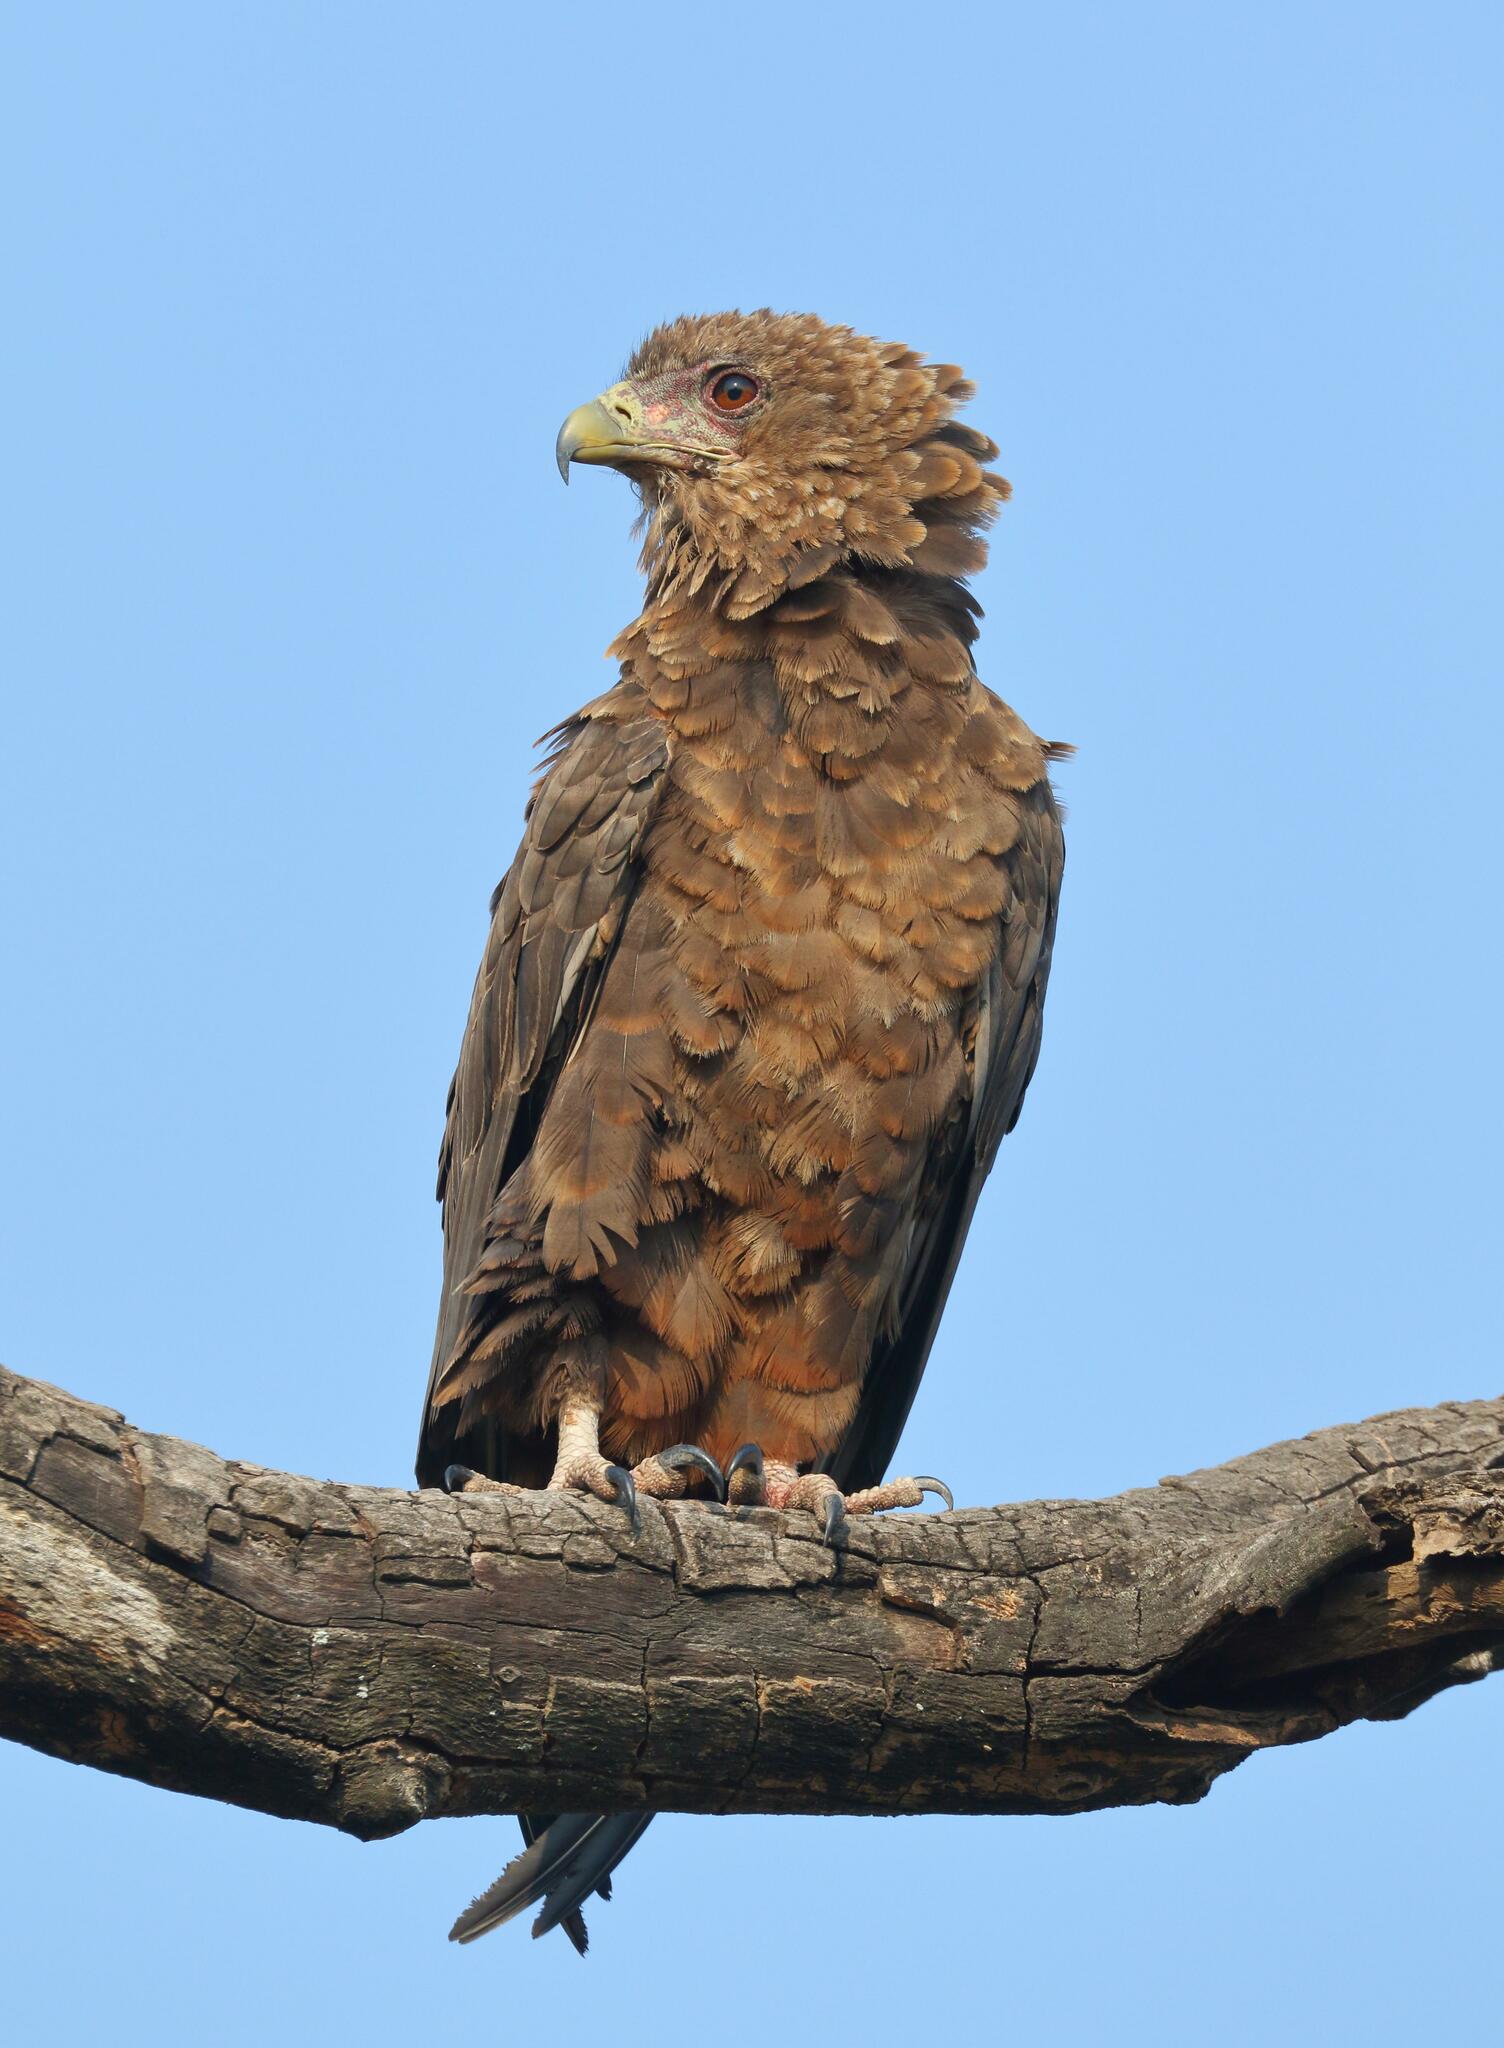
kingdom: Animalia
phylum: Chordata
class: Aves
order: Accipitriformes
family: Accipitridae
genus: Terathopius
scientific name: Terathopius ecaudatus
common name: Bateleur
